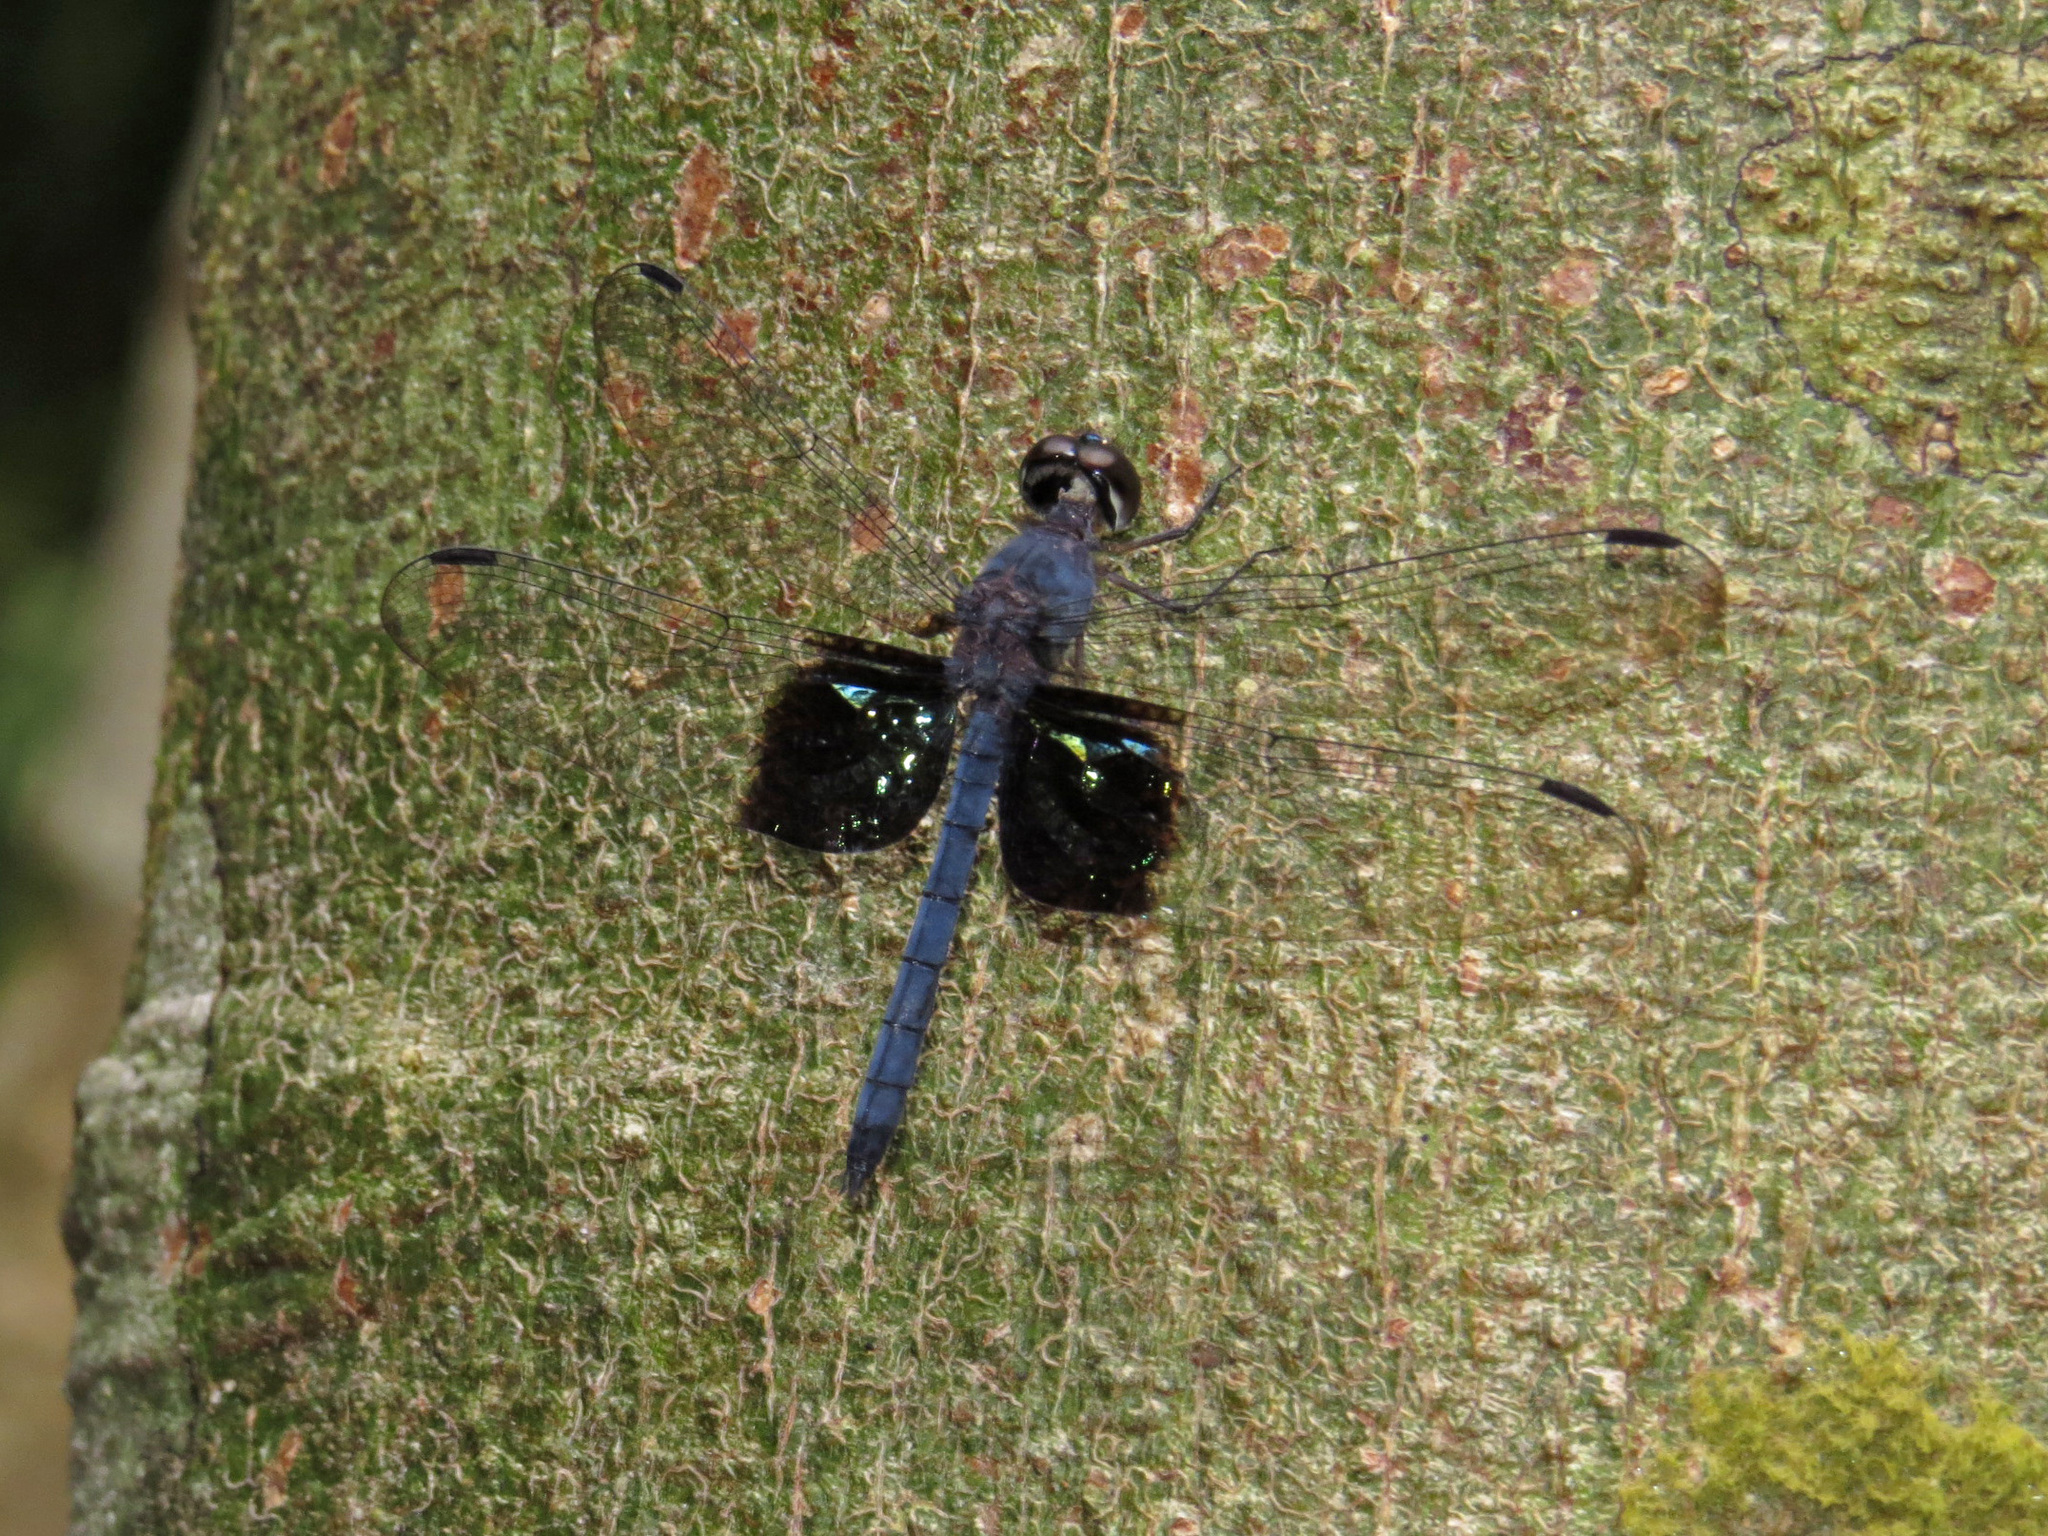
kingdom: Animalia
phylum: Arthropoda
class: Insecta
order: Odonata
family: Libellulidae
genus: Tyriobapta
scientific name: Tyriobapta torrida
